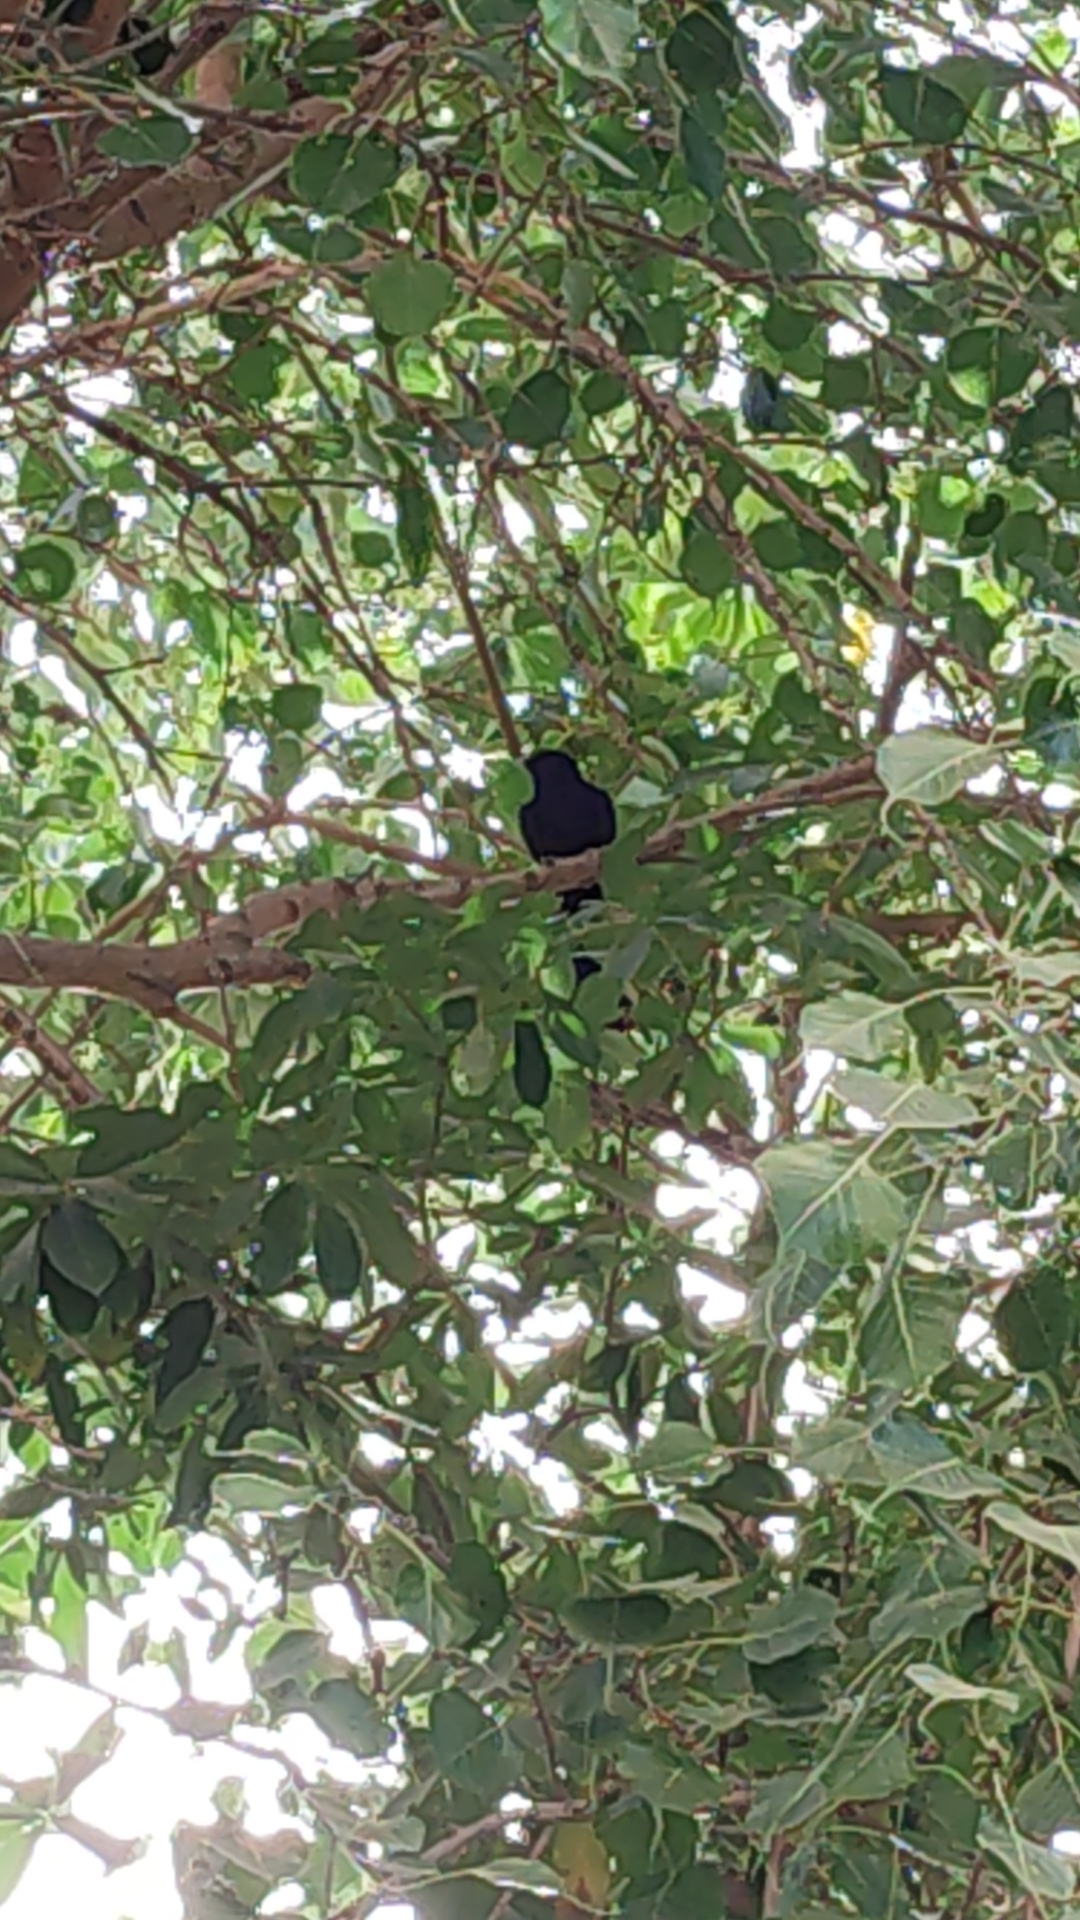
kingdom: Animalia
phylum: Chordata
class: Aves
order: Cuculiformes
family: Cuculidae
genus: Eudynamys
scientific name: Eudynamys scolopaceus
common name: Asian koel
